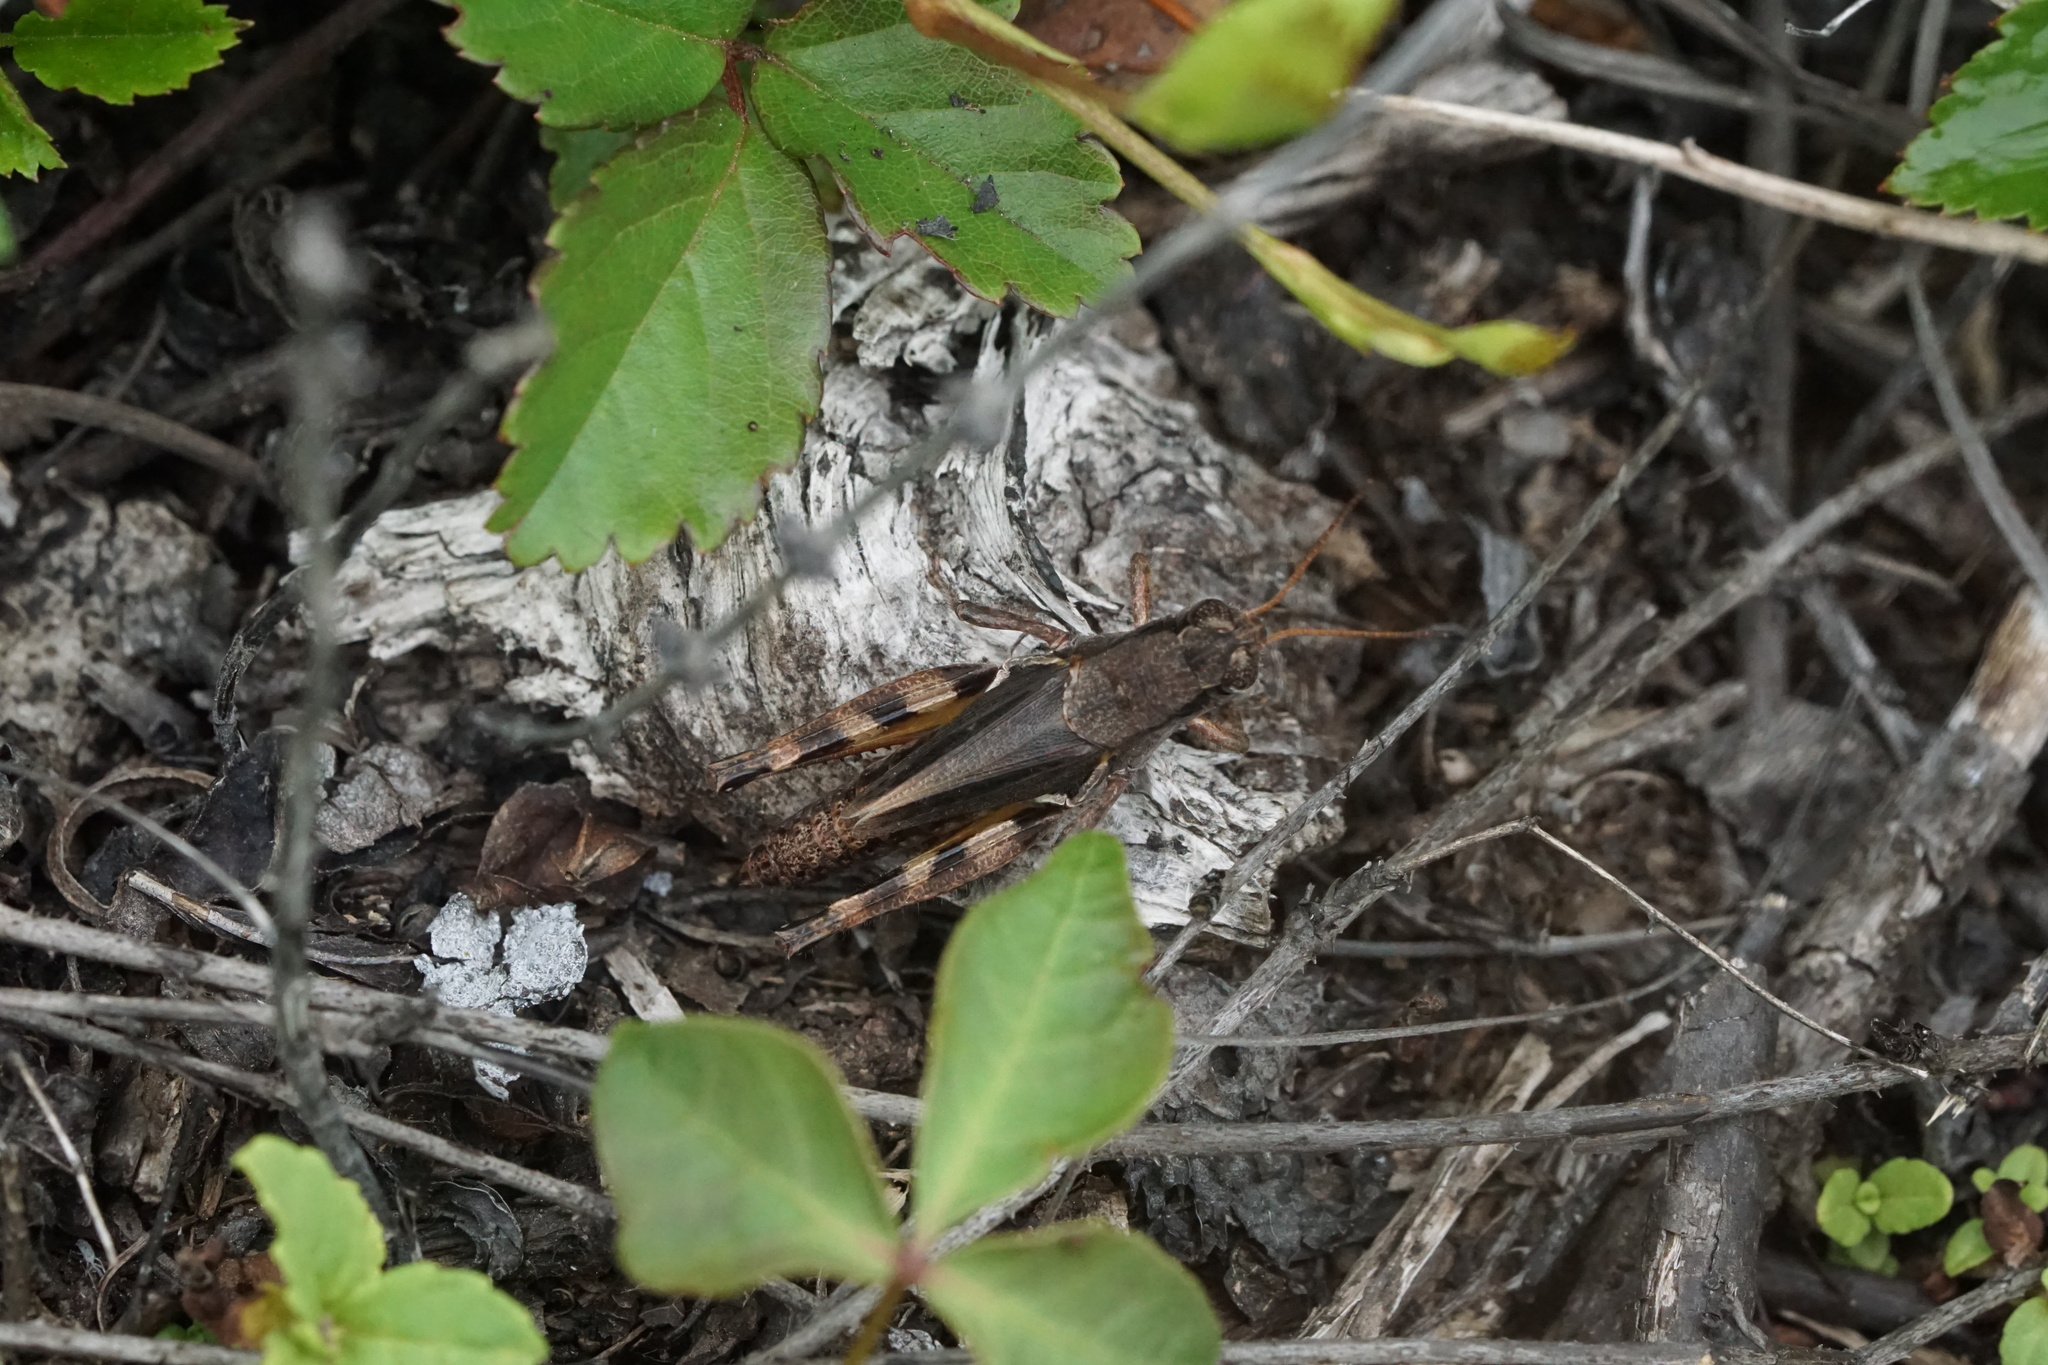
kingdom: Animalia
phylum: Arthropoda
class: Insecta
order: Orthoptera
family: Acrididae
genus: Melanoplus
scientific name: Melanoplus fasciatus
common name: Huckleberry locust
